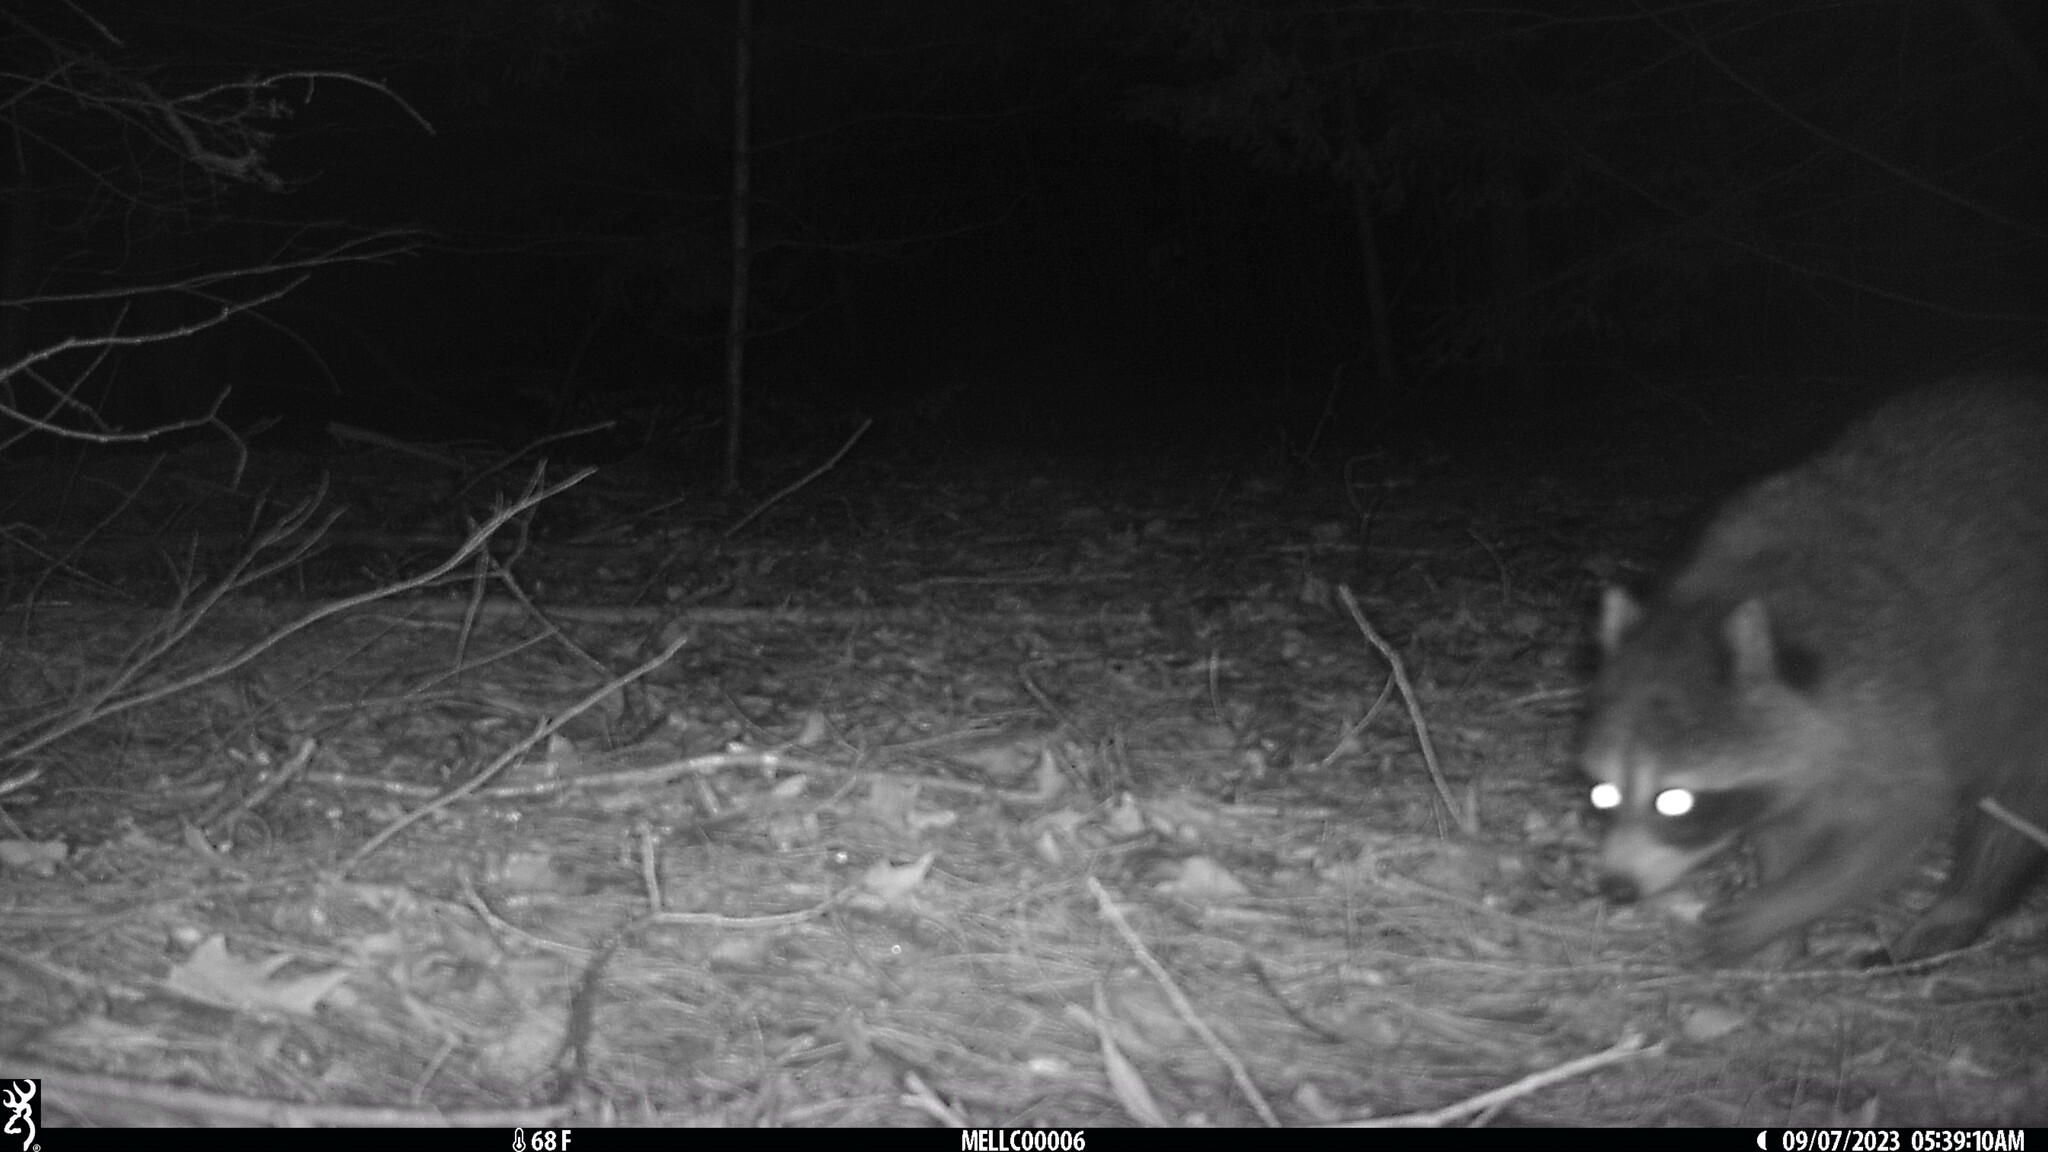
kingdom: Animalia
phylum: Chordata
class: Mammalia
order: Carnivora
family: Procyonidae
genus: Procyon
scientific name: Procyon lotor
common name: Raccoon
